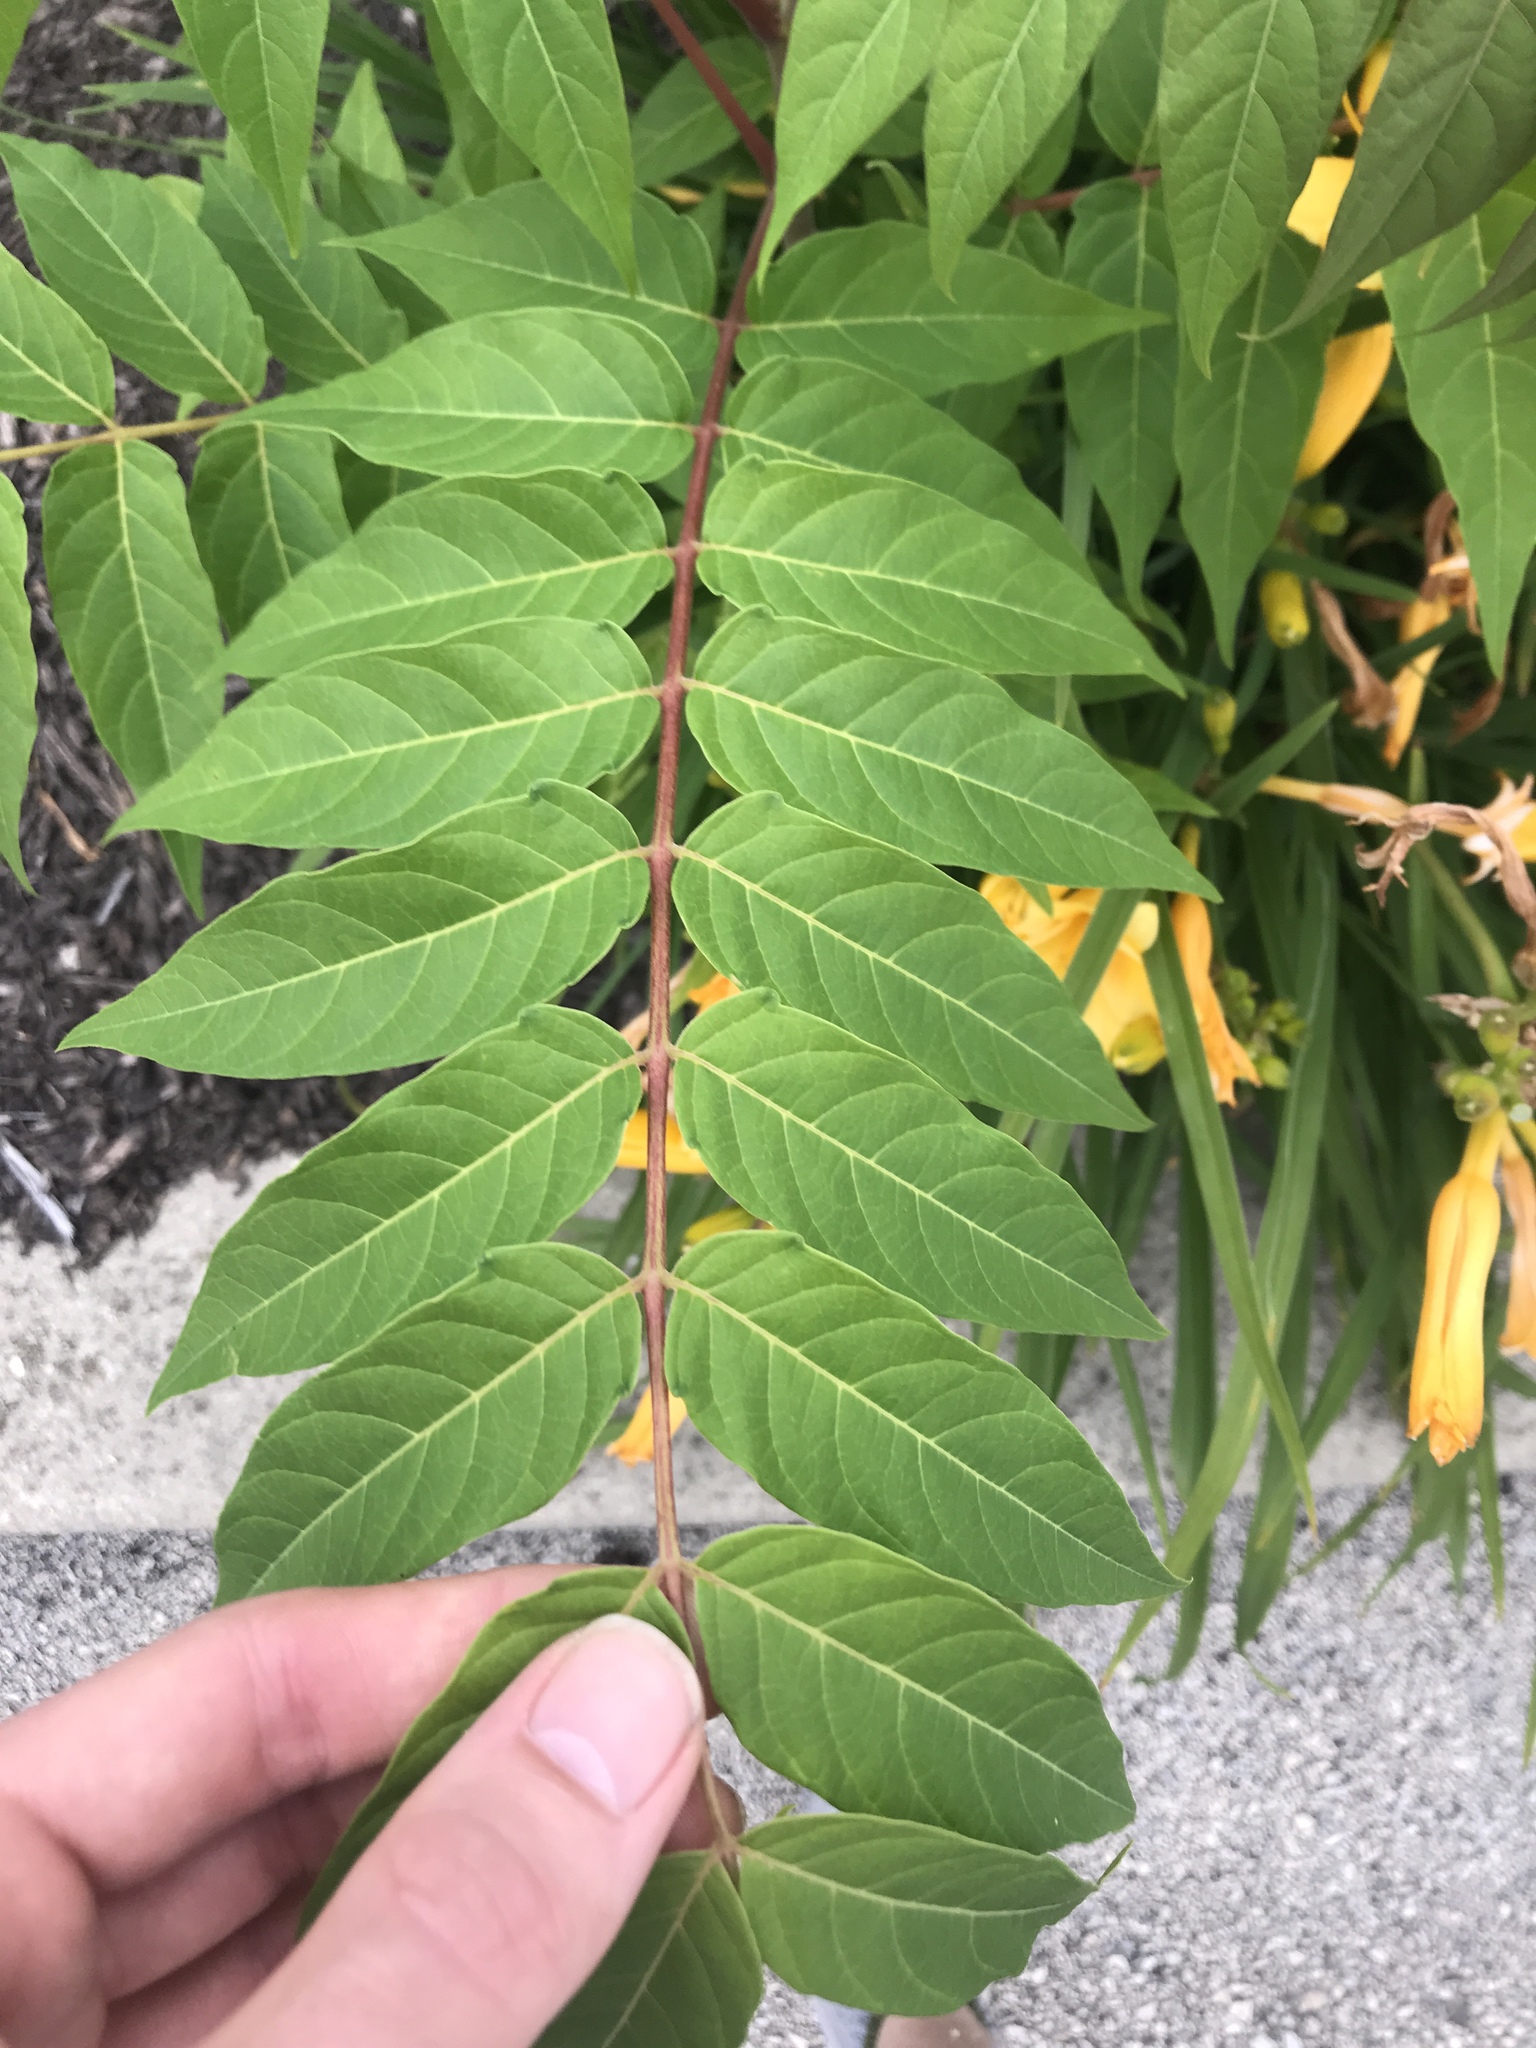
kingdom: Plantae
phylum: Tracheophyta
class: Magnoliopsida
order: Sapindales
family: Simaroubaceae
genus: Ailanthus
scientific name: Ailanthus altissima
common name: Tree-of-heaven
